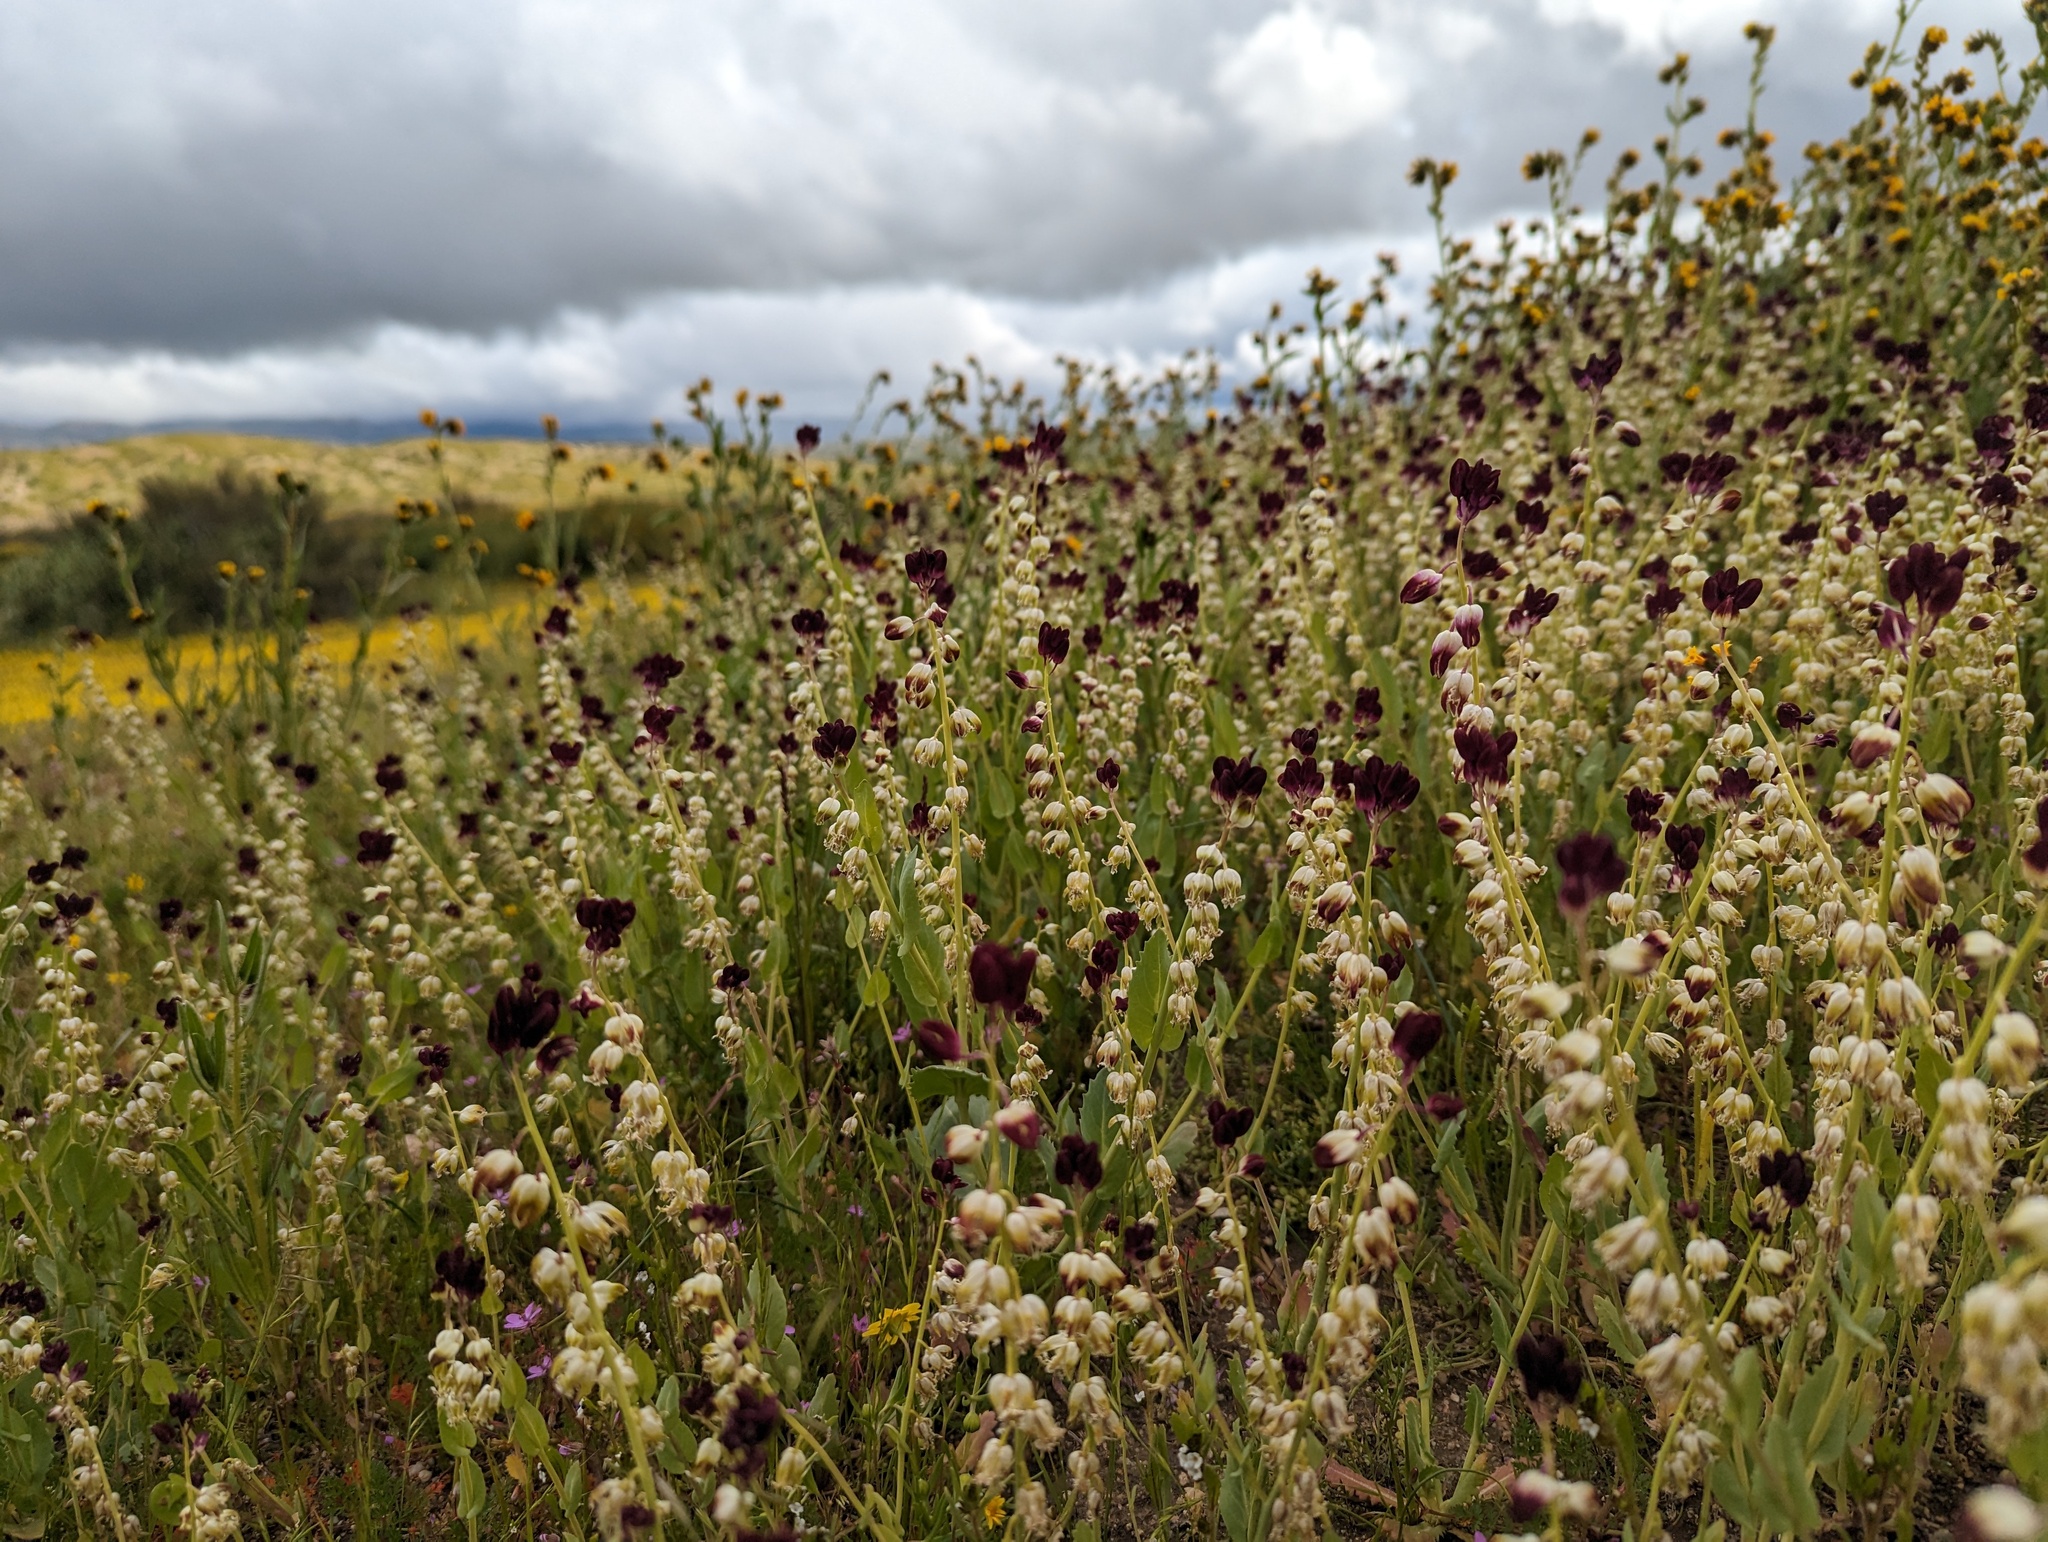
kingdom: Plantae
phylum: Tracheophyta
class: Magnoliopsida
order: Brassicales
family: Brassicaceae
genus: Streptanthus
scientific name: Streptanthus californicus
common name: California-jewel-flower
